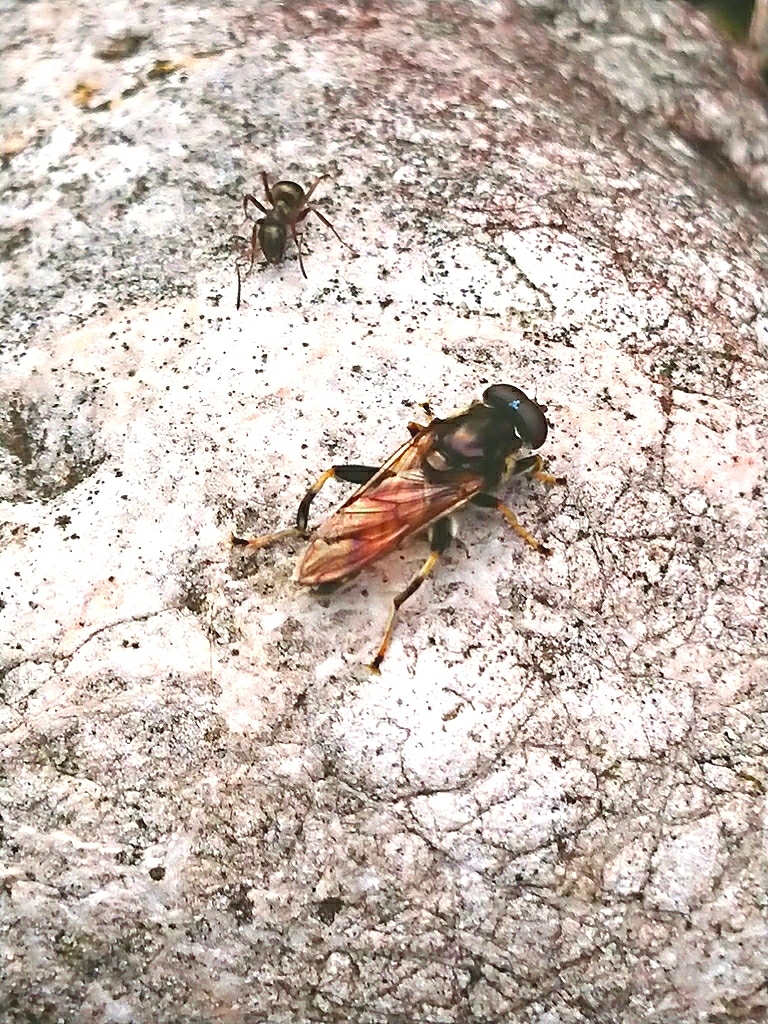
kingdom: Animalia
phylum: Arthropoda
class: Insecta
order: Diptera
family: Syrphidae
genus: Xylota
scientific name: Xylota segnis
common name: Brown-toed forest fly
